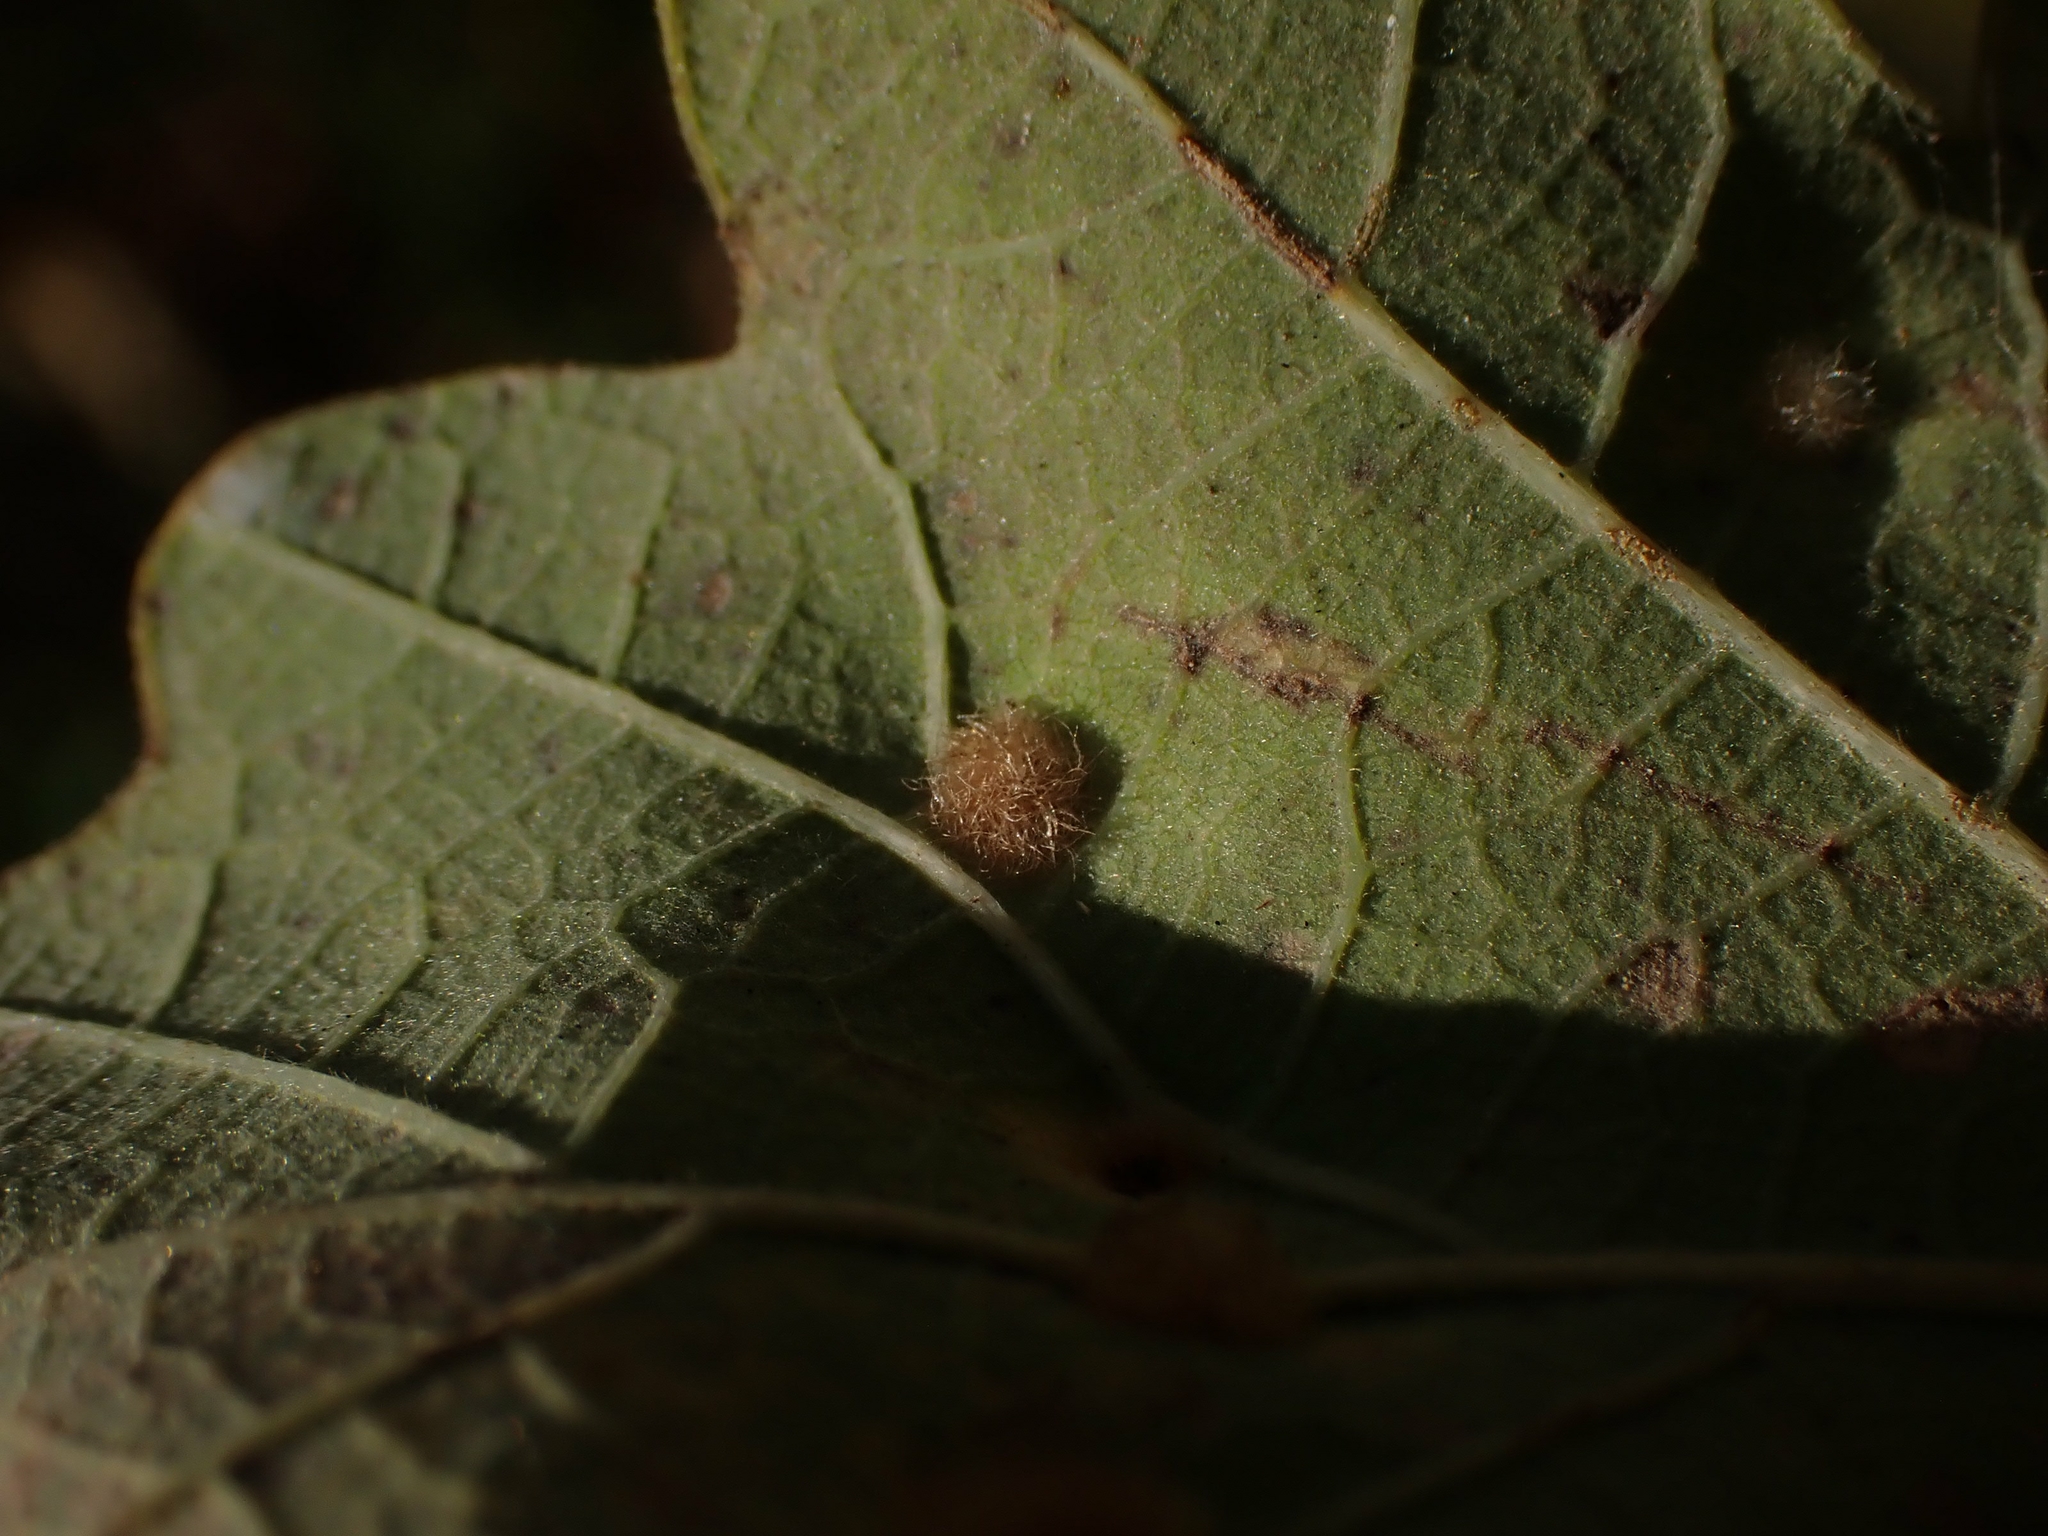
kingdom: Animalia
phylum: Arthropoda
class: Insecta
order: Hymenoptera
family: Cynipidae
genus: Neuroterus
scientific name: Neuroterus floccosus
